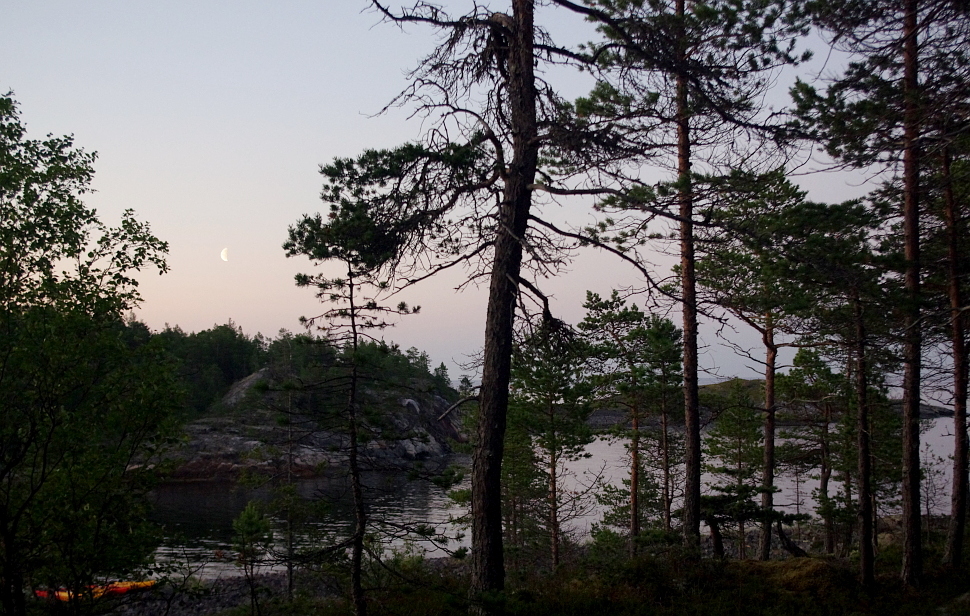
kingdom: Plantae
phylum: Tracheophyta
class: Pinopsida
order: Pinales
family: Pinaceae
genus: Pinus
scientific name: Pinus sylvestris
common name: Scots pine
